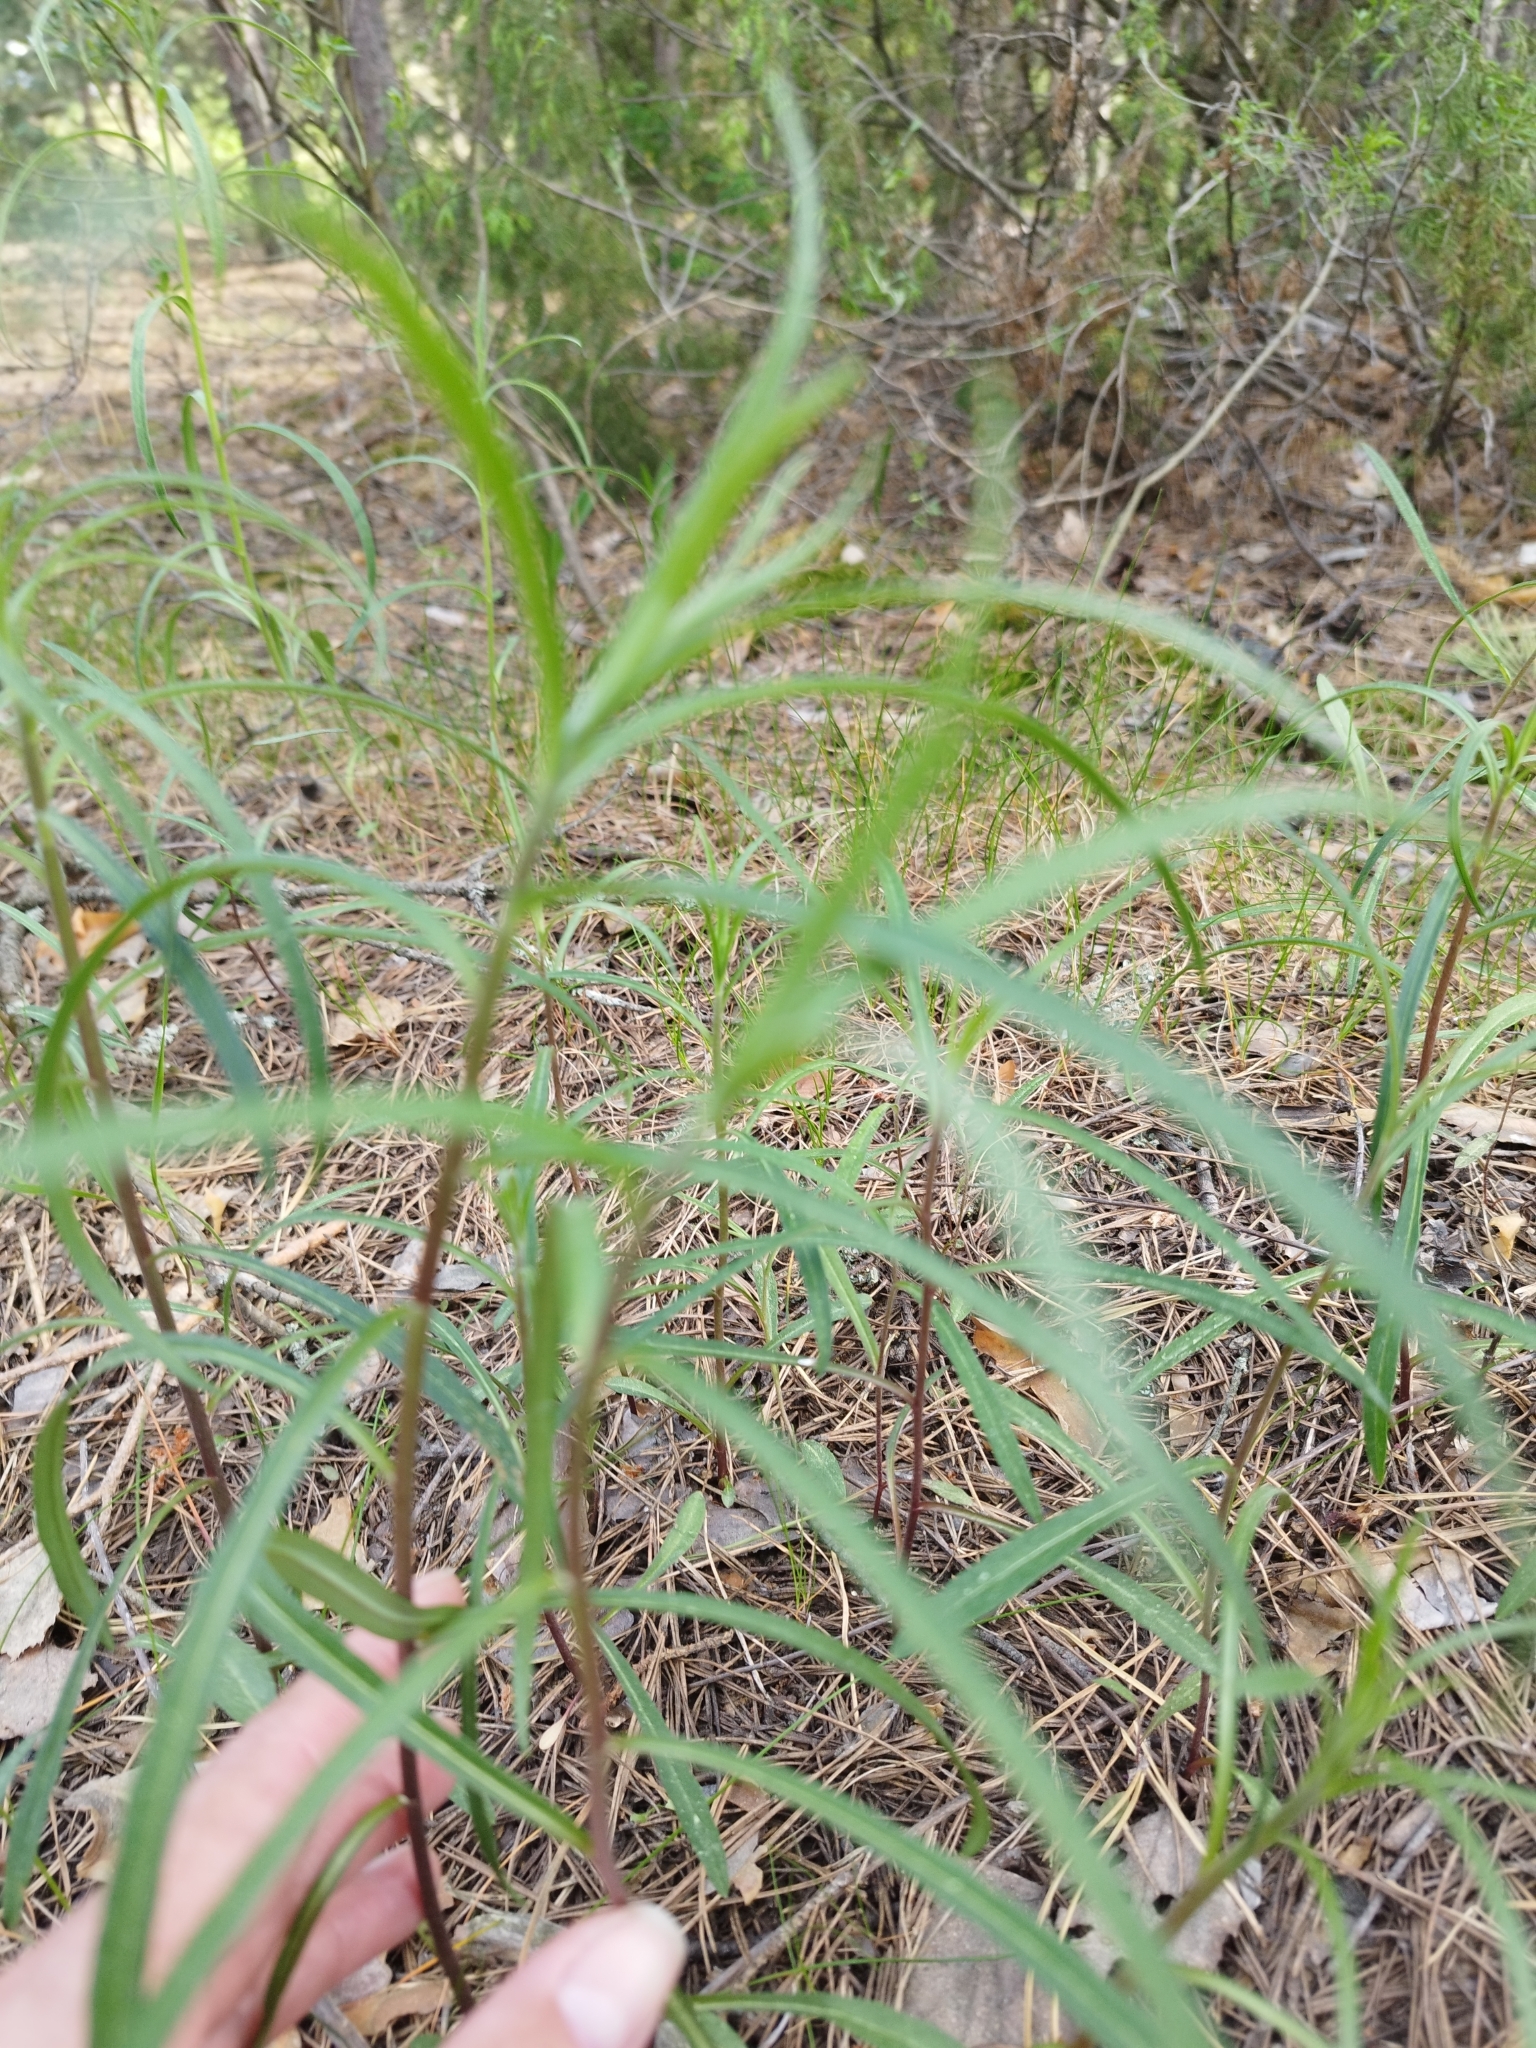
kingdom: Plantae
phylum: Tracheophyta
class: Magnoliopsida
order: Asterales
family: Asteraceae
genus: Hieracium
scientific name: Hieracium umbellatum
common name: Northern hawkweed
